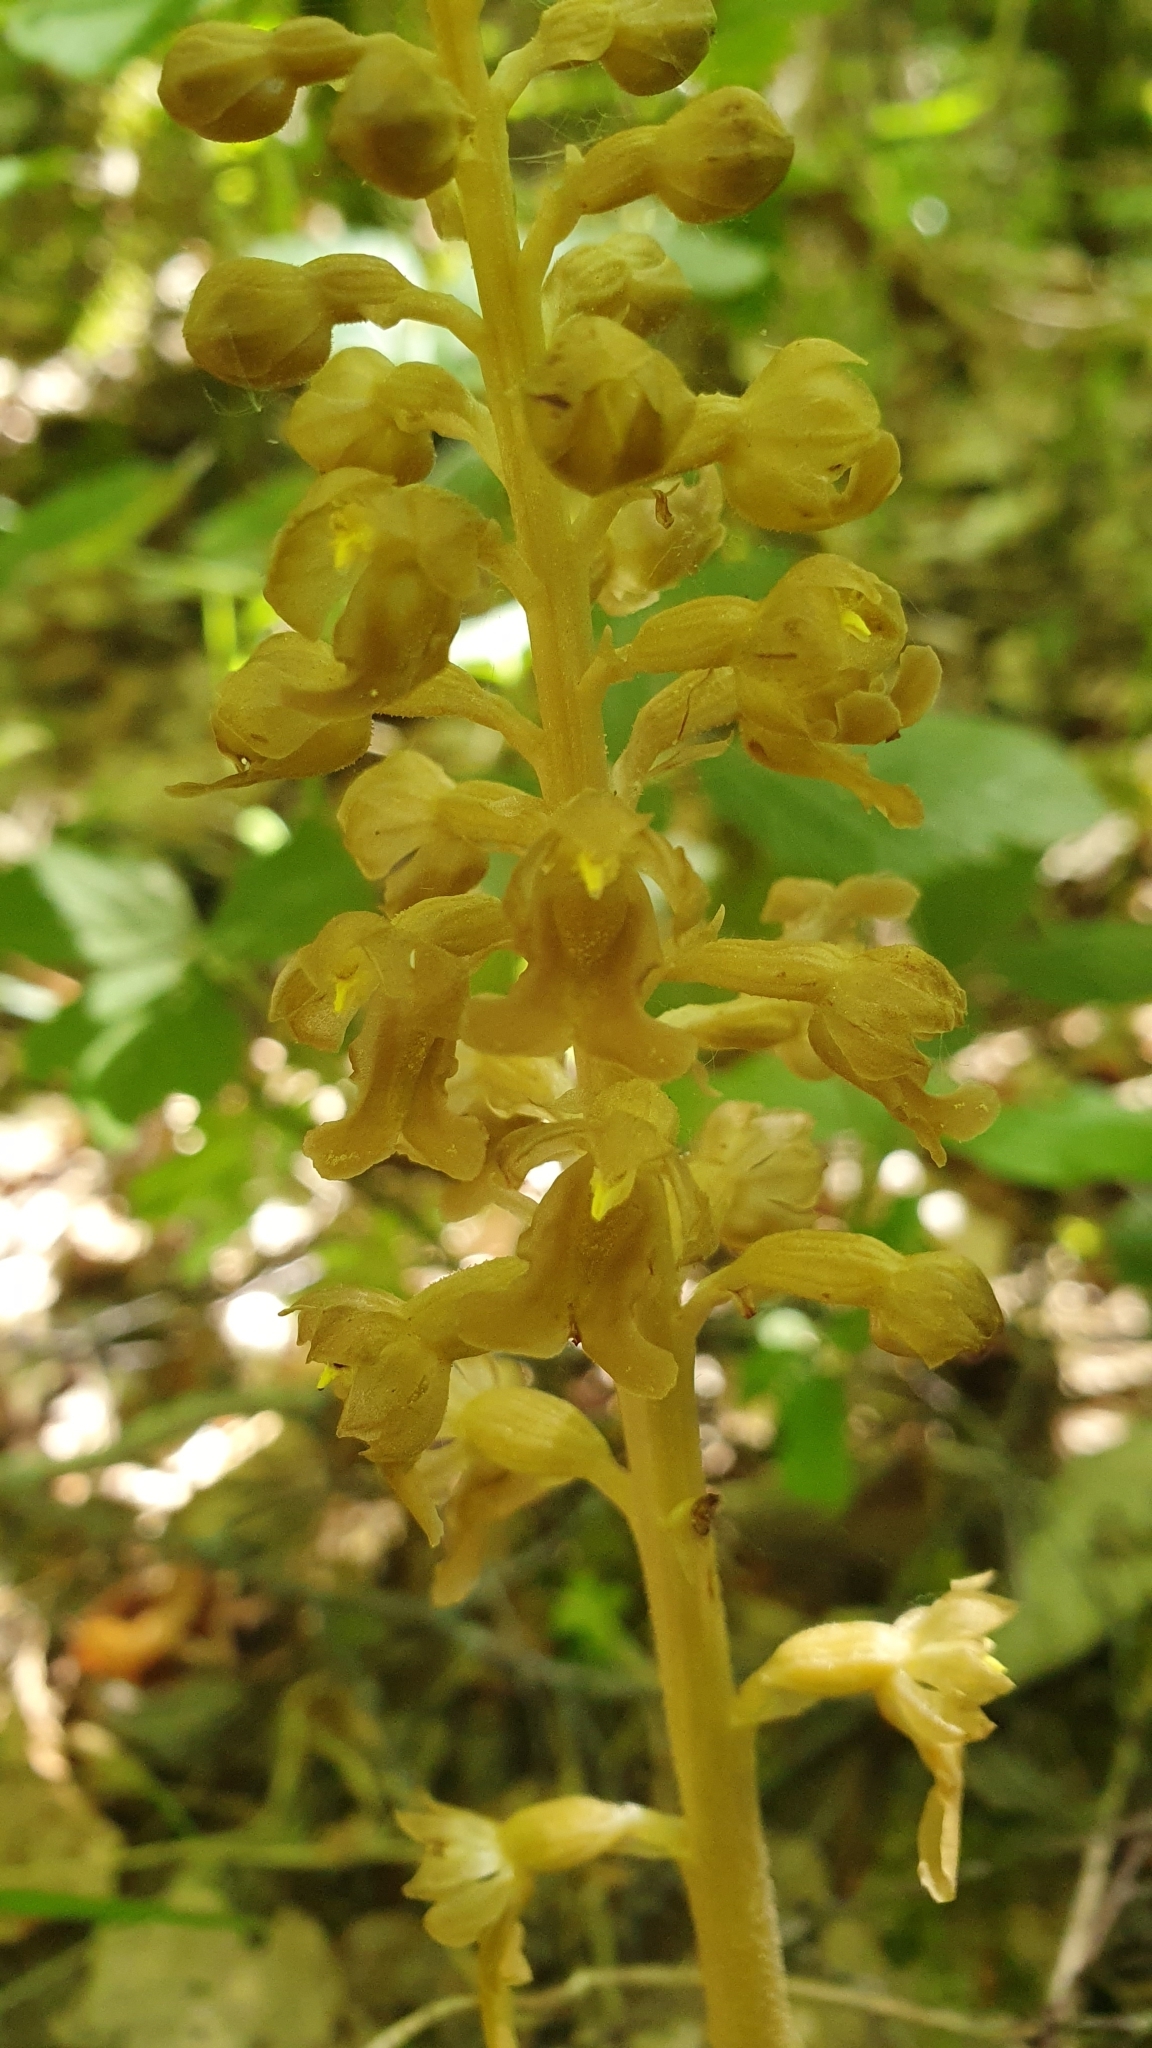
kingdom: Plantae
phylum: Tracheophyta
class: Liliopsida
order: Asparagales
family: Orchidaceae
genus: Neottia
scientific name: Neottia nidus-avis
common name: Bird's-nest orchid
